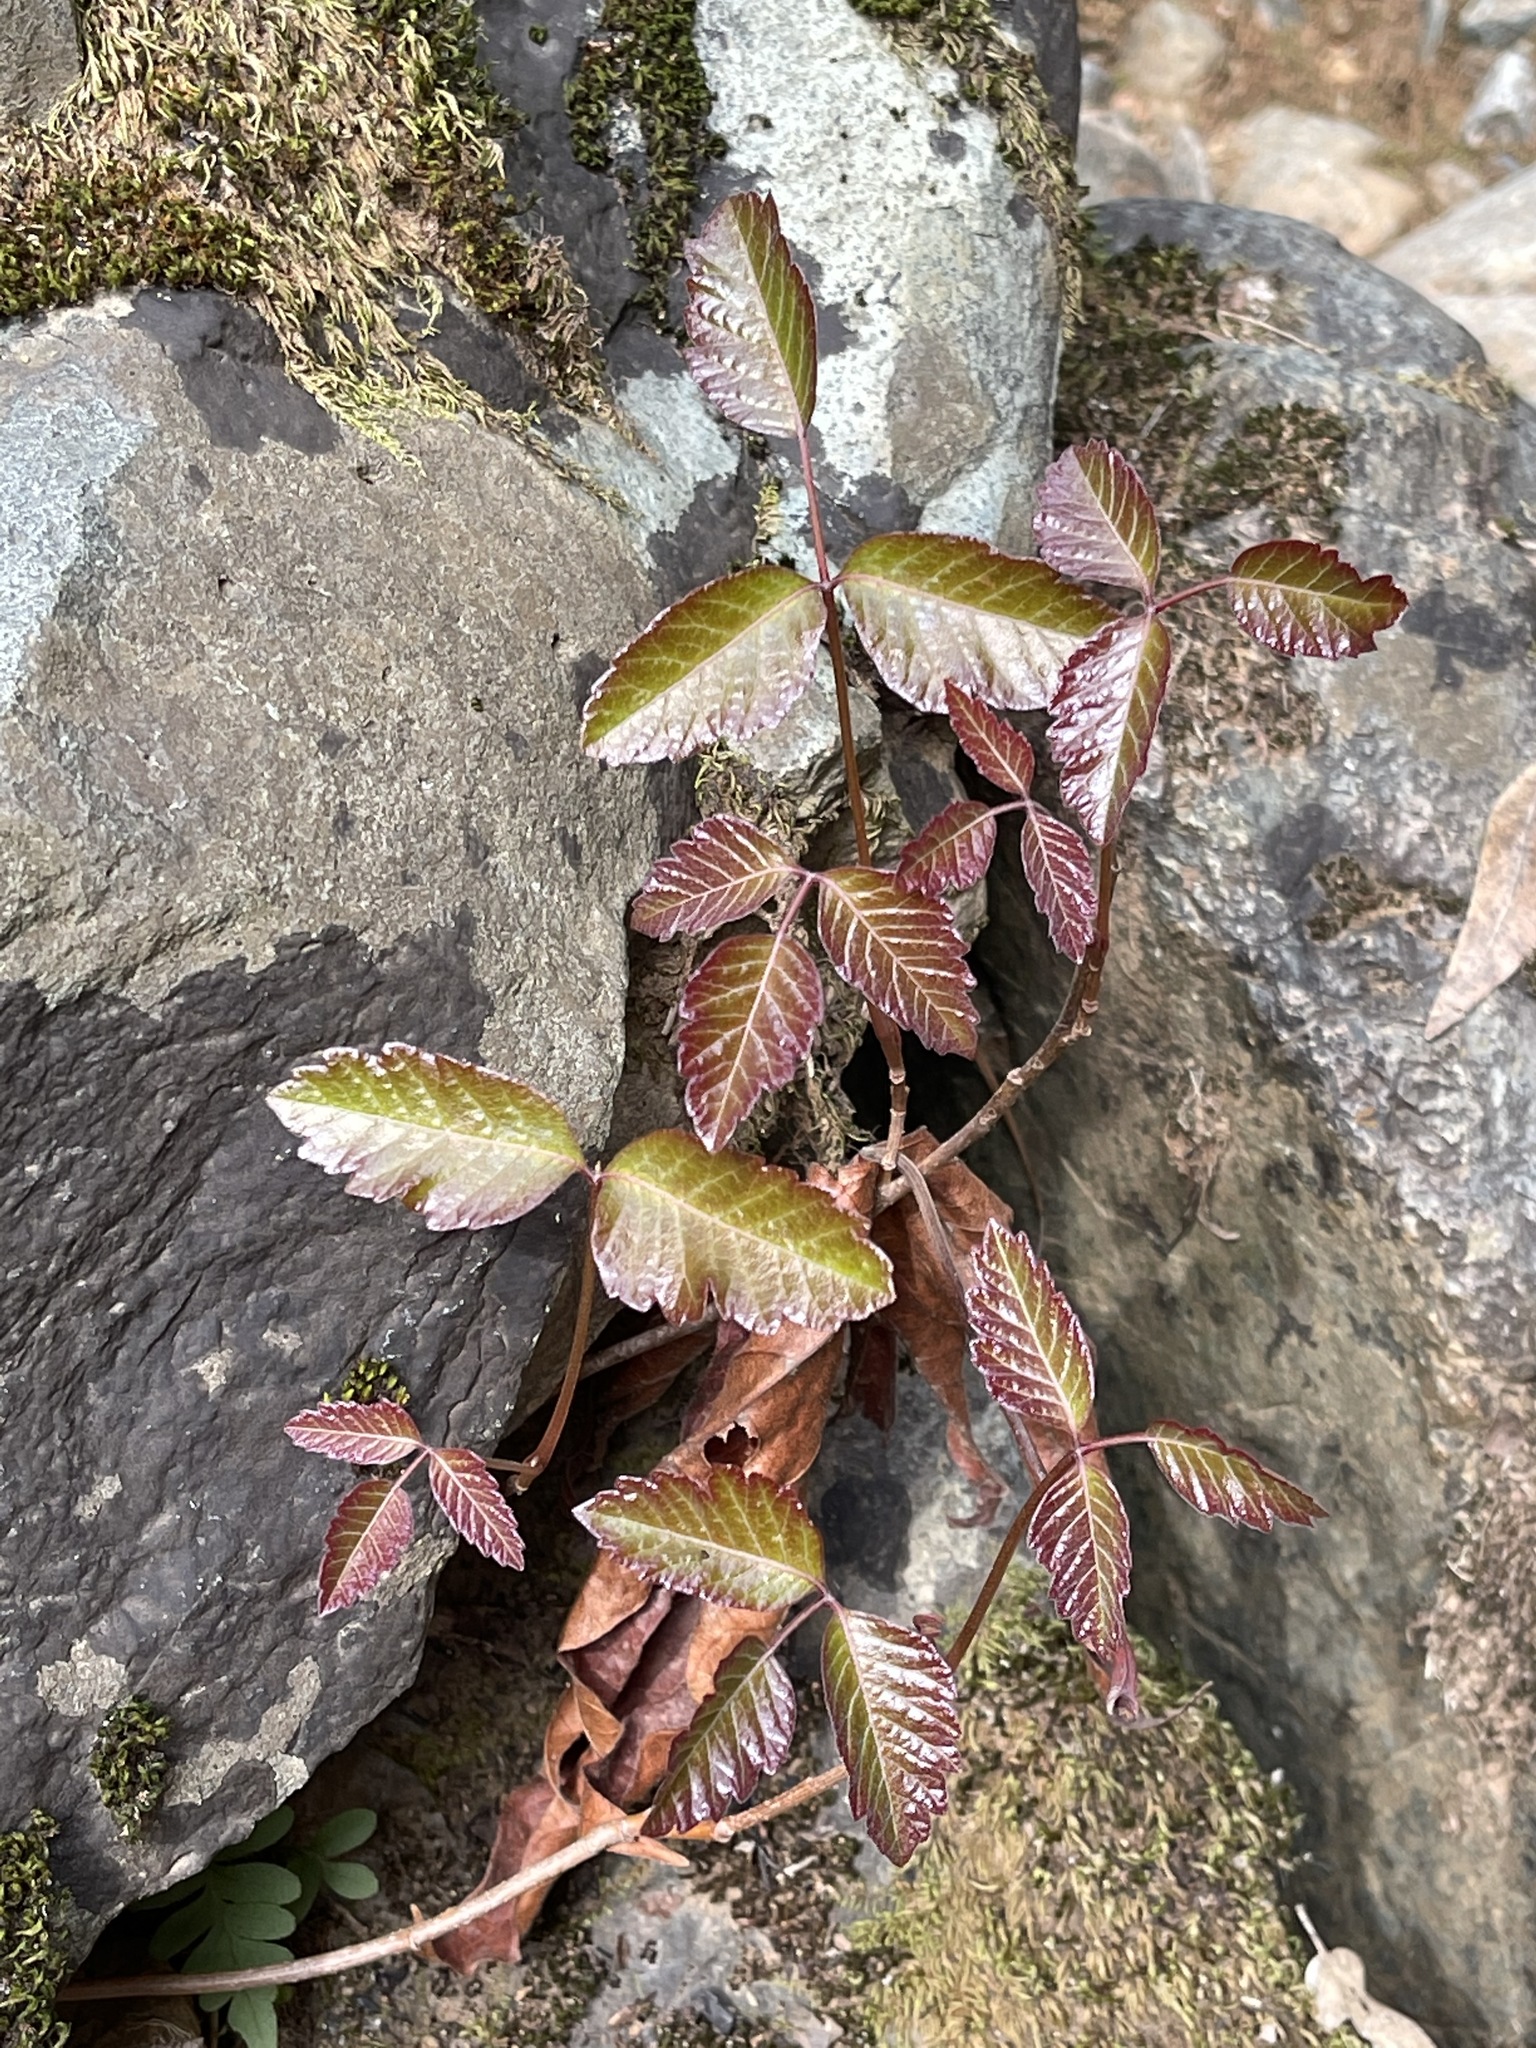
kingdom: Plantae
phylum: Tracheophyta
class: Magnoliopsida
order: Sapindales
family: Anacardiaceae
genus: Toxicodendron
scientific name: Toxicodendron diversilobum
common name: Pacific poison-oak
